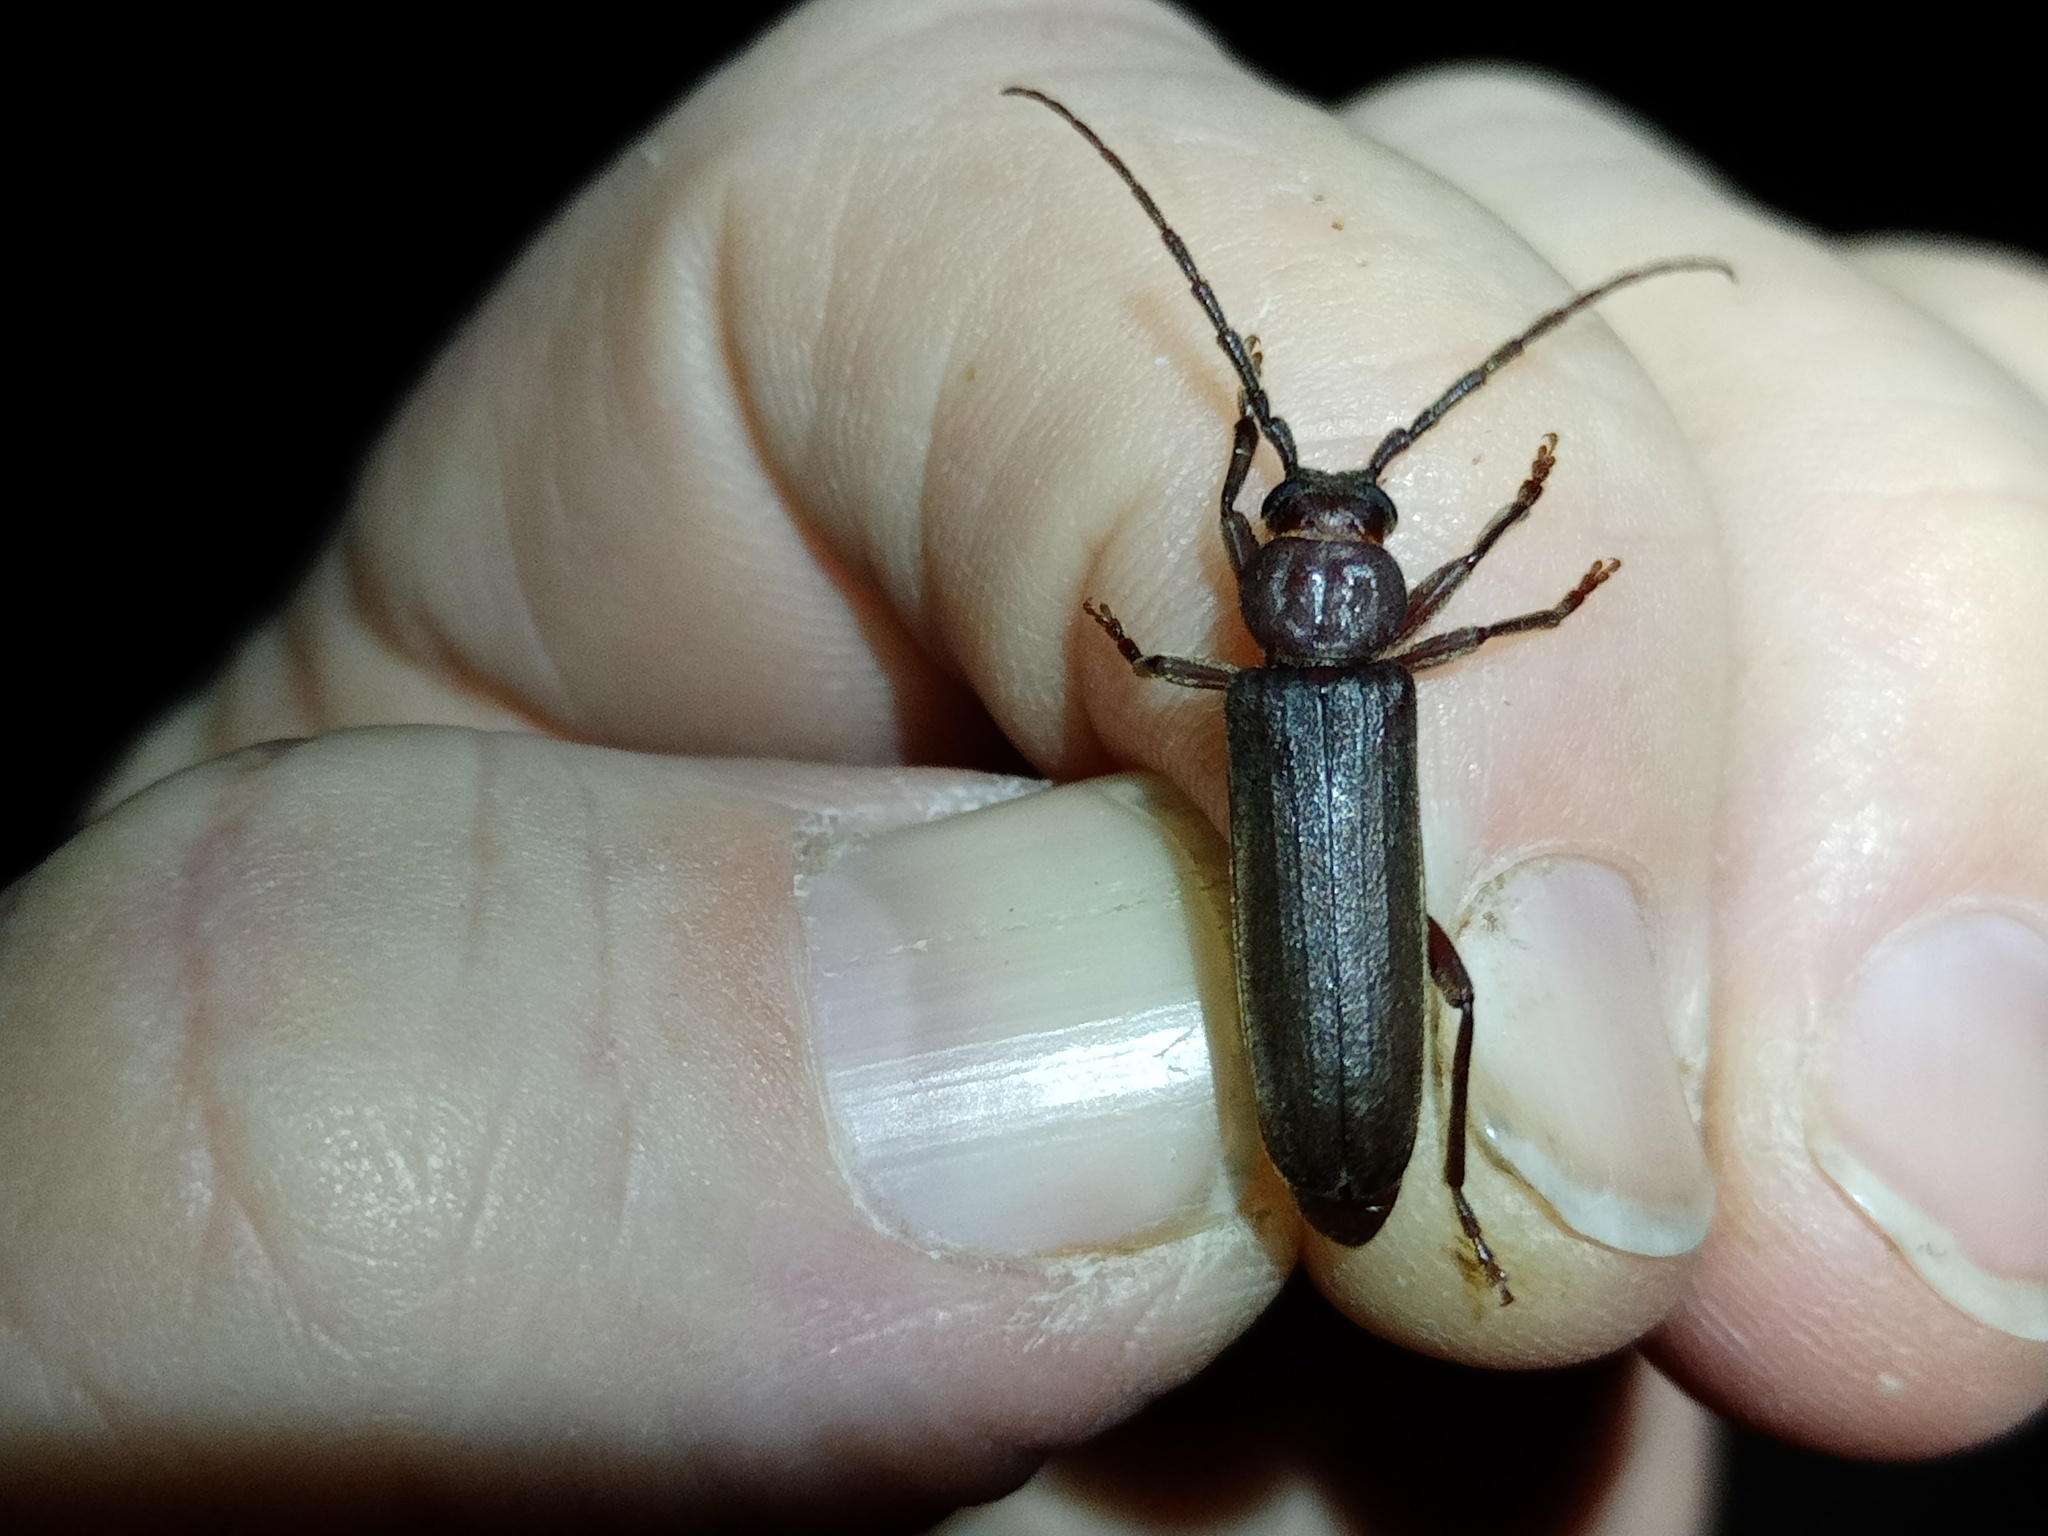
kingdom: Animalia
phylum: Arthropoda
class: Insecta
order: Coleoptera
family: Cerambycidae
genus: Arhopalus
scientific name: Arhopalus rusticus
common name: Rust pine borer
